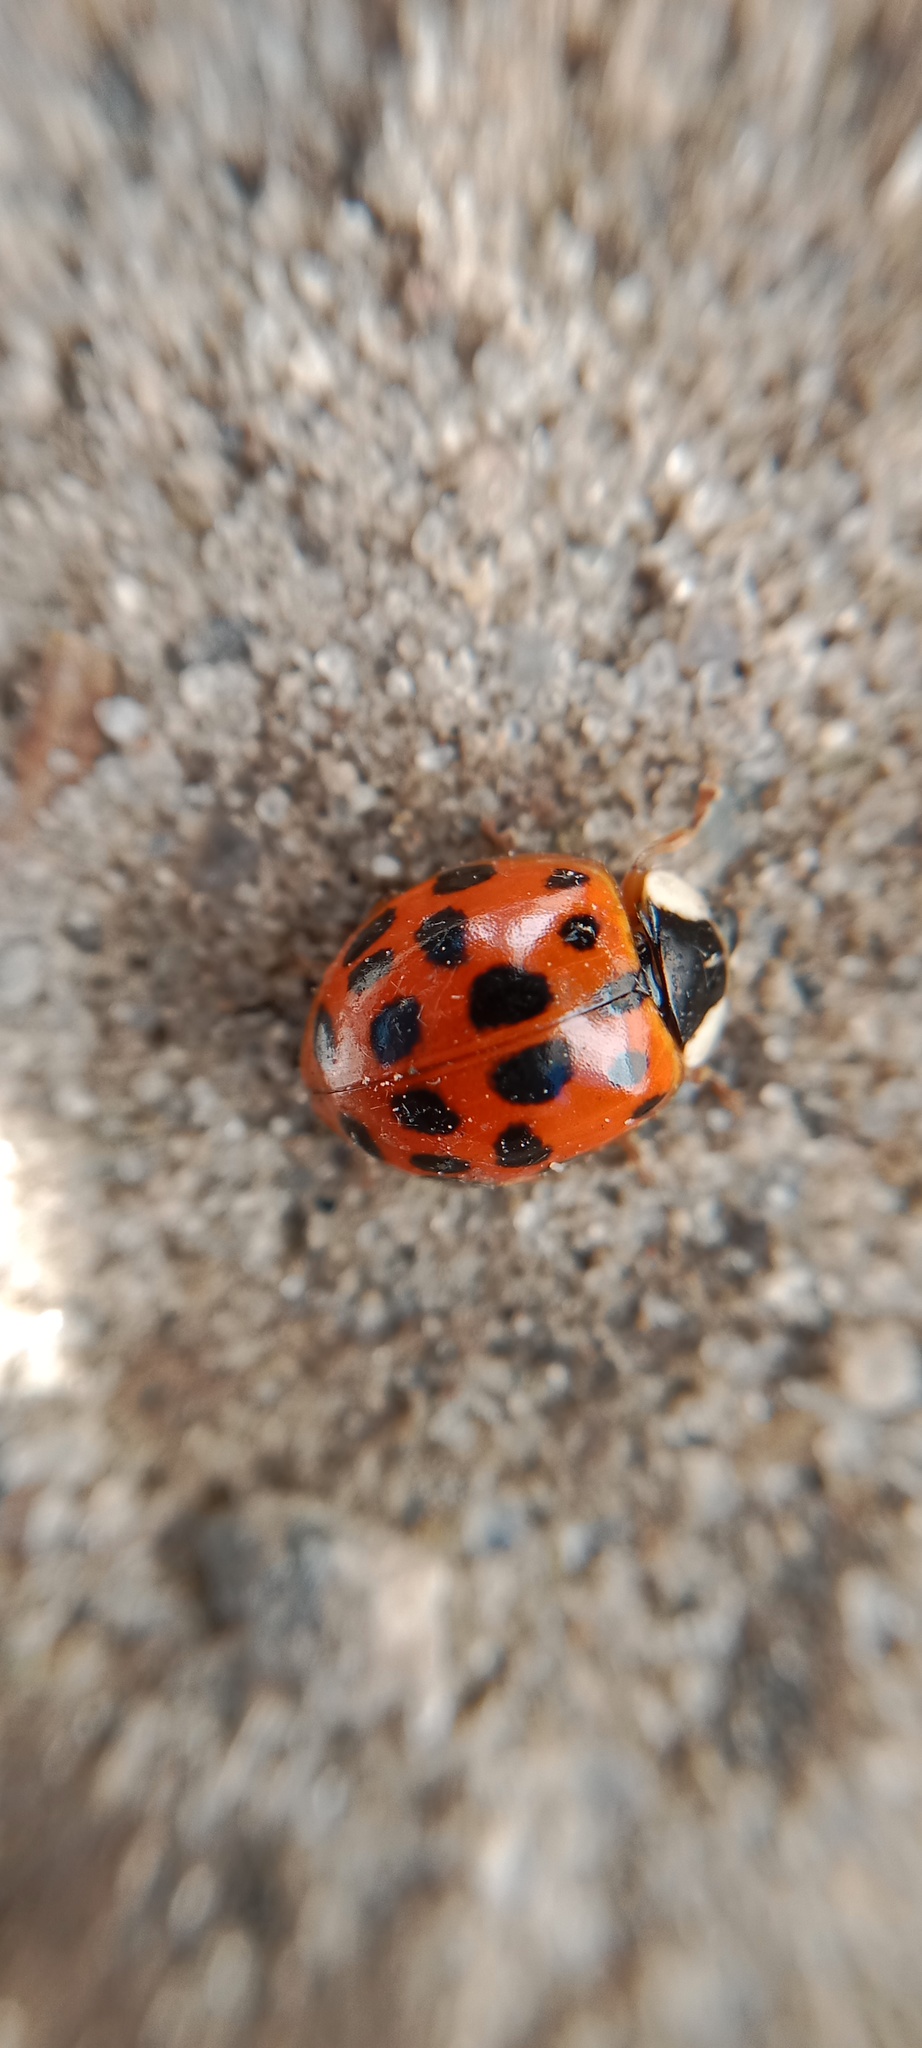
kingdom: Animalia
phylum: Arthropoda
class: Insecta
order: Coleoptera
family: Coccinellidae
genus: Harmonia
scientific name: Harmonia axyridis
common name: Harlequin ladybird
